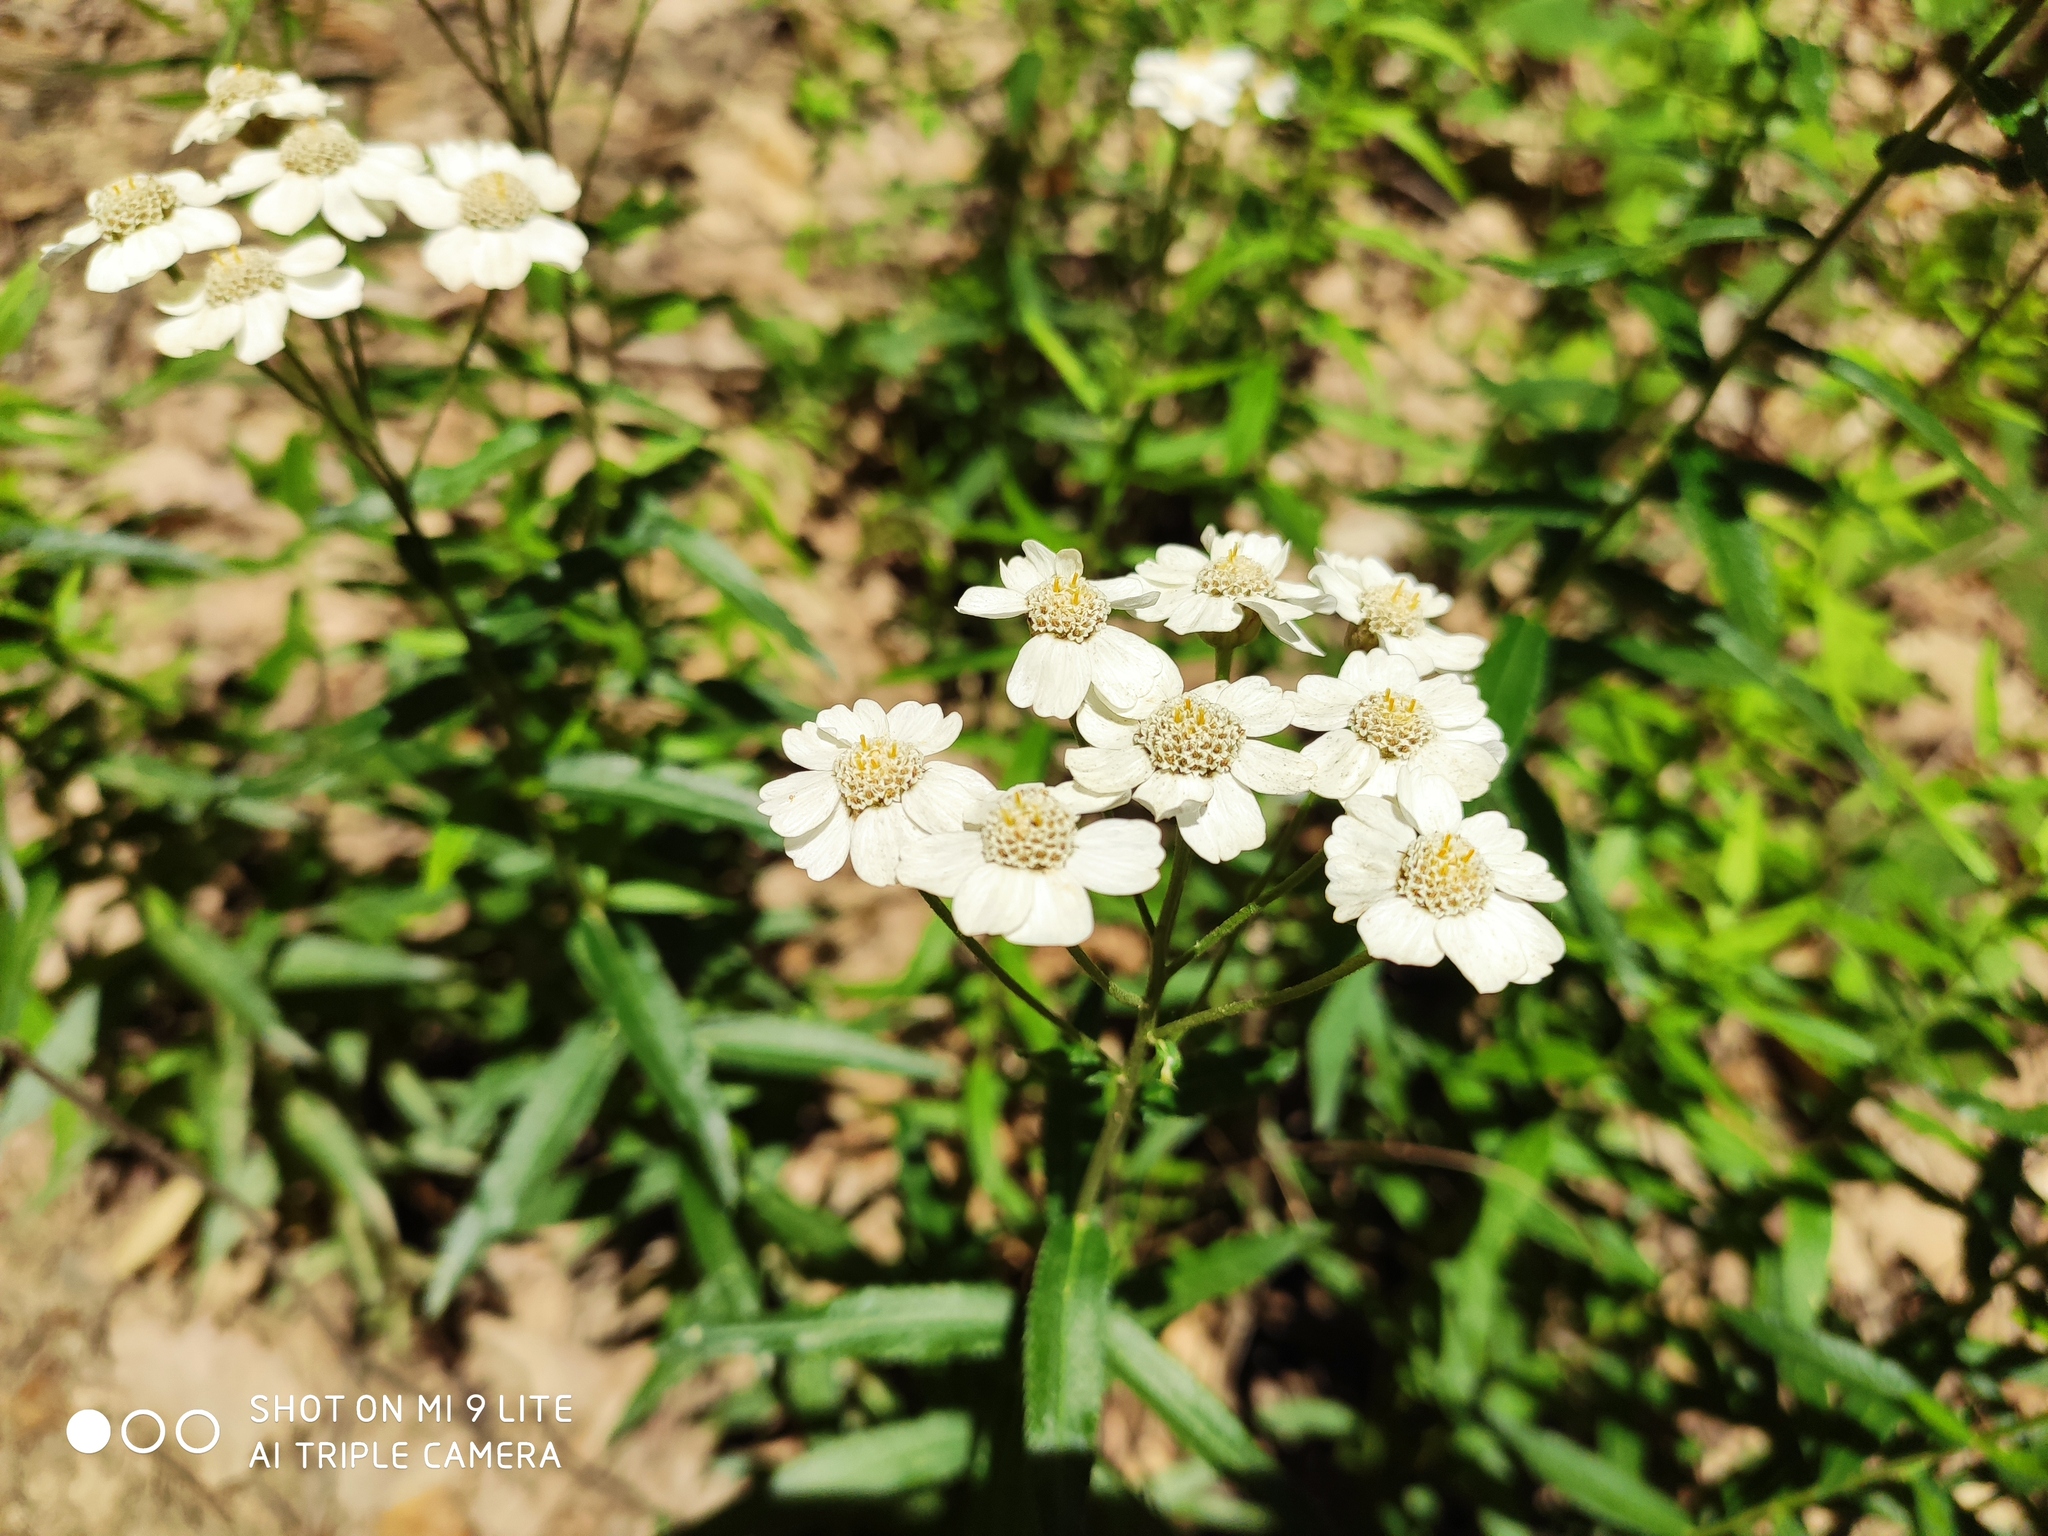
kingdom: Plantae
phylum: Tracheophyta
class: Magnoliopsida
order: Asterales
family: Asteraceae
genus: Achillea
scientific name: Achillea biserrata
